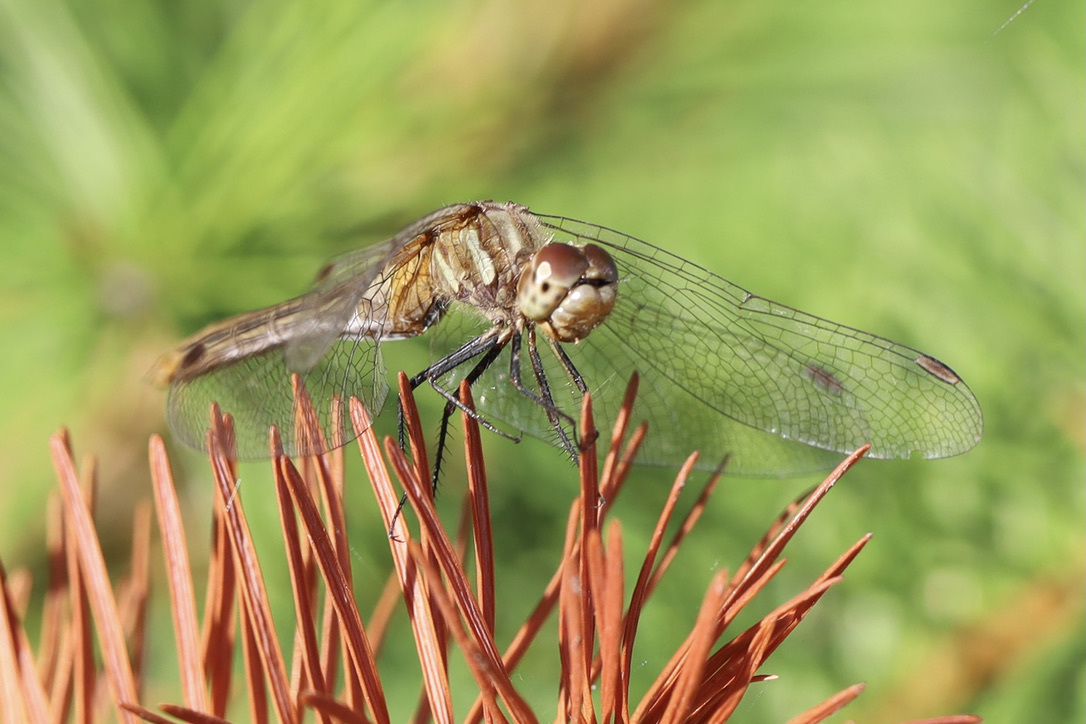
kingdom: Animalia
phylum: Arthropoda
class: Insecta
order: Odonata
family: Libellulidae
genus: Sympetrum
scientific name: Sympetrum pallipes
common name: Striped meadowhawk
